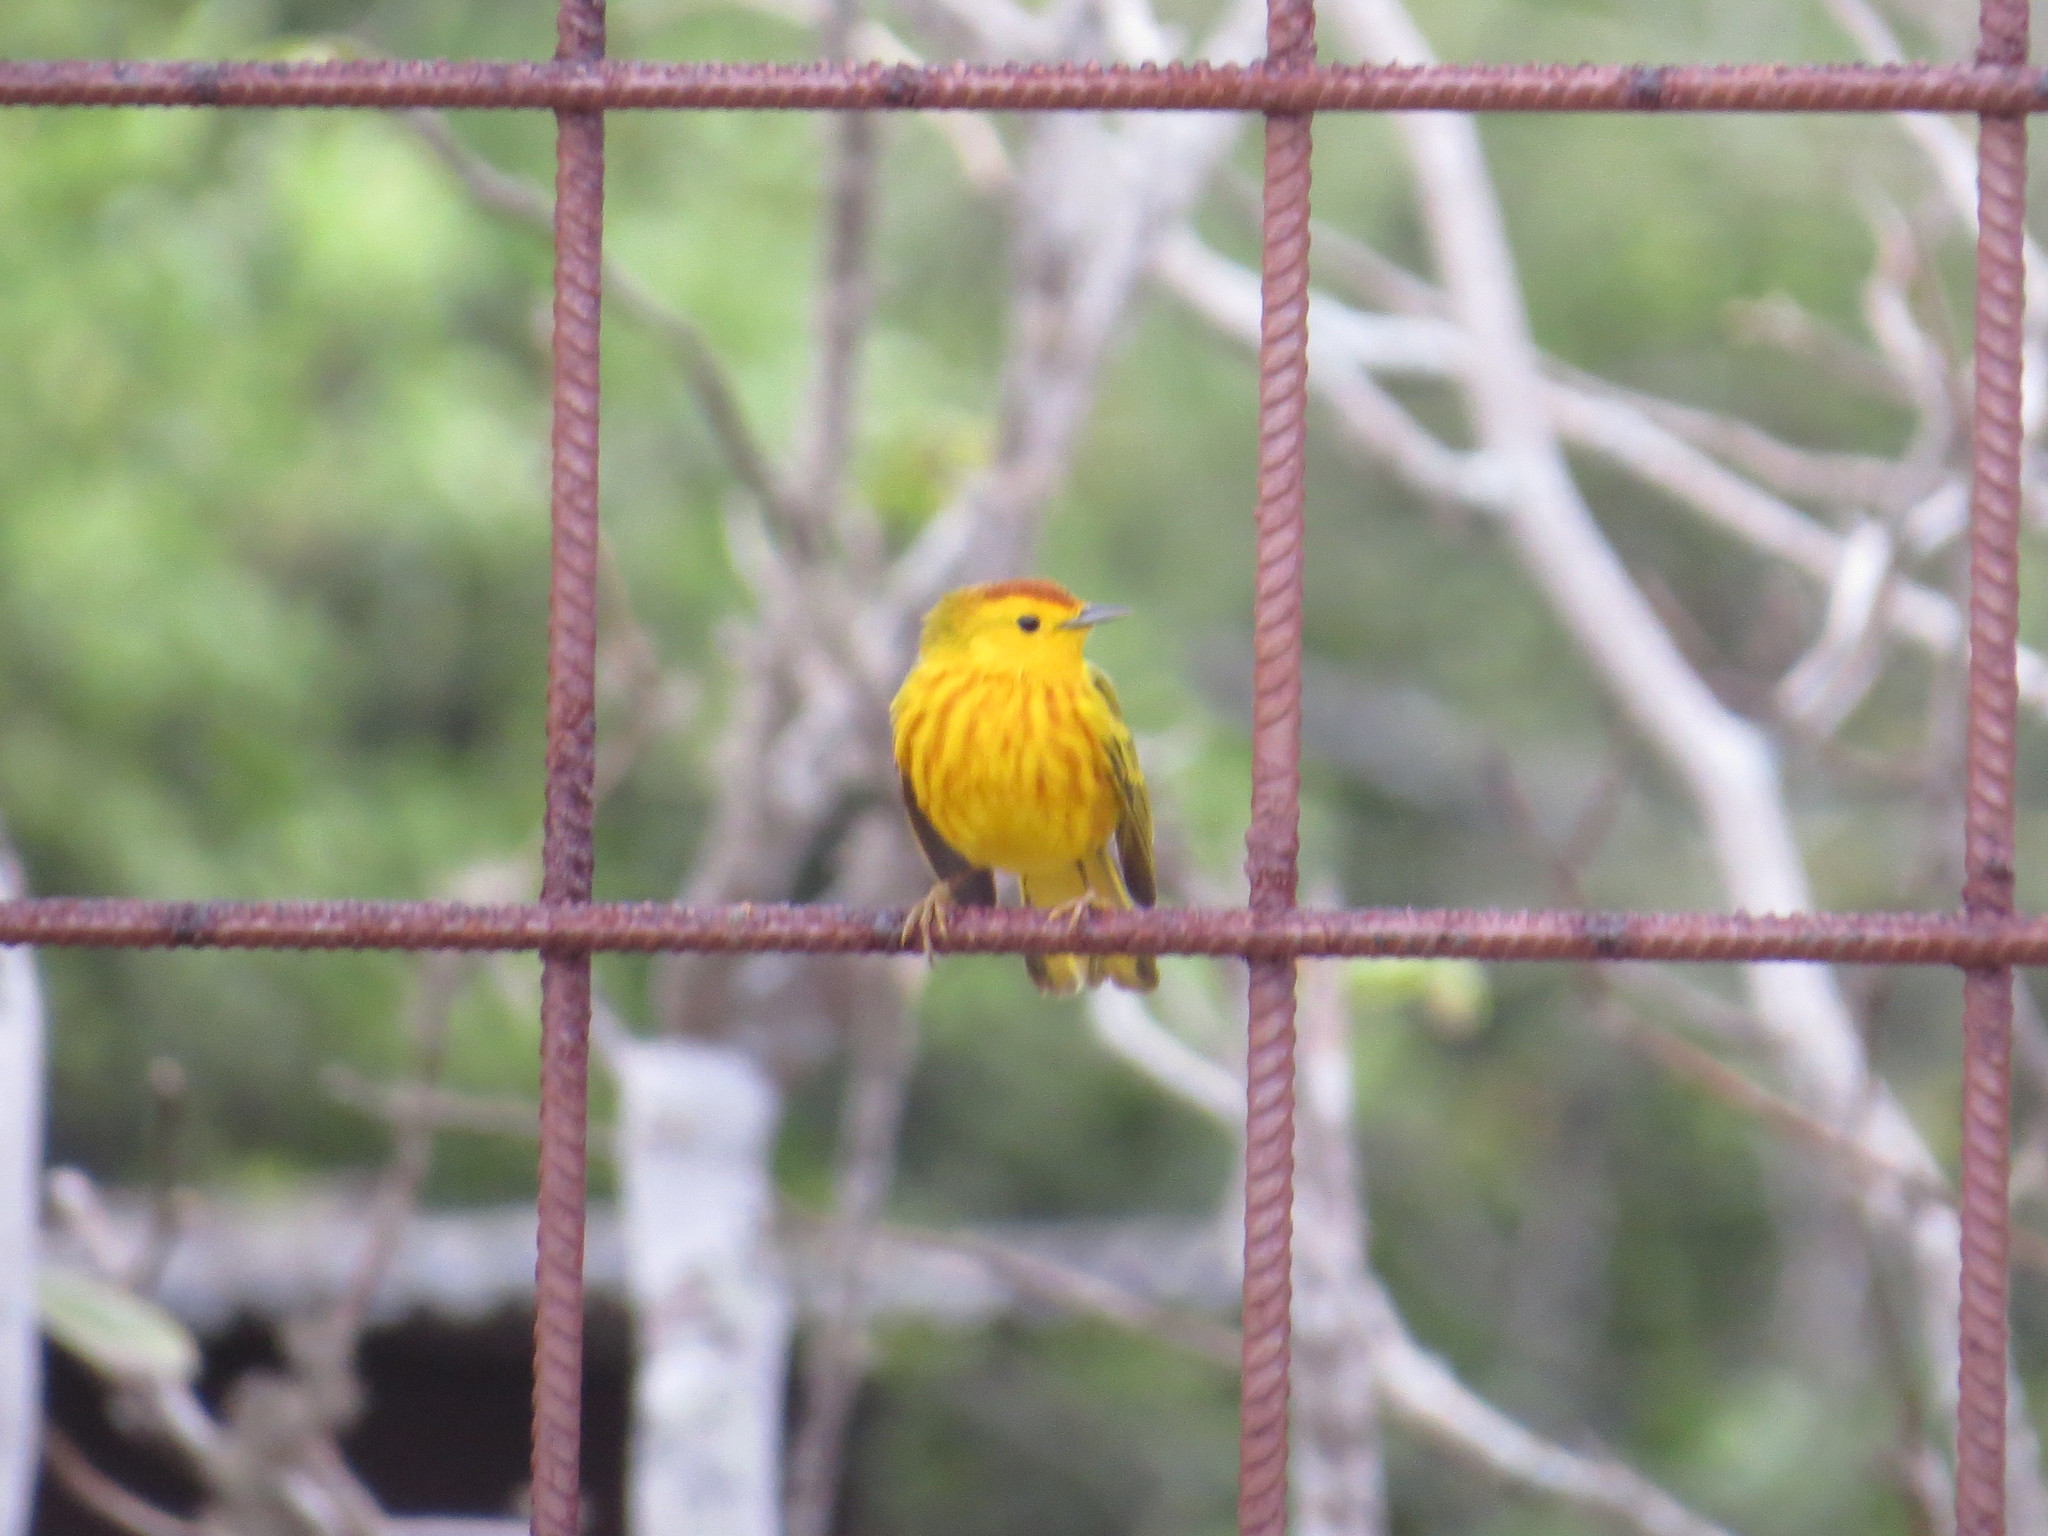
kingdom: Animalia
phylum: Chordata
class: Aves
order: Passeriformes
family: Parulidae
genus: Setophaga
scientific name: Setophaga petechia
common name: Yellow warbler
